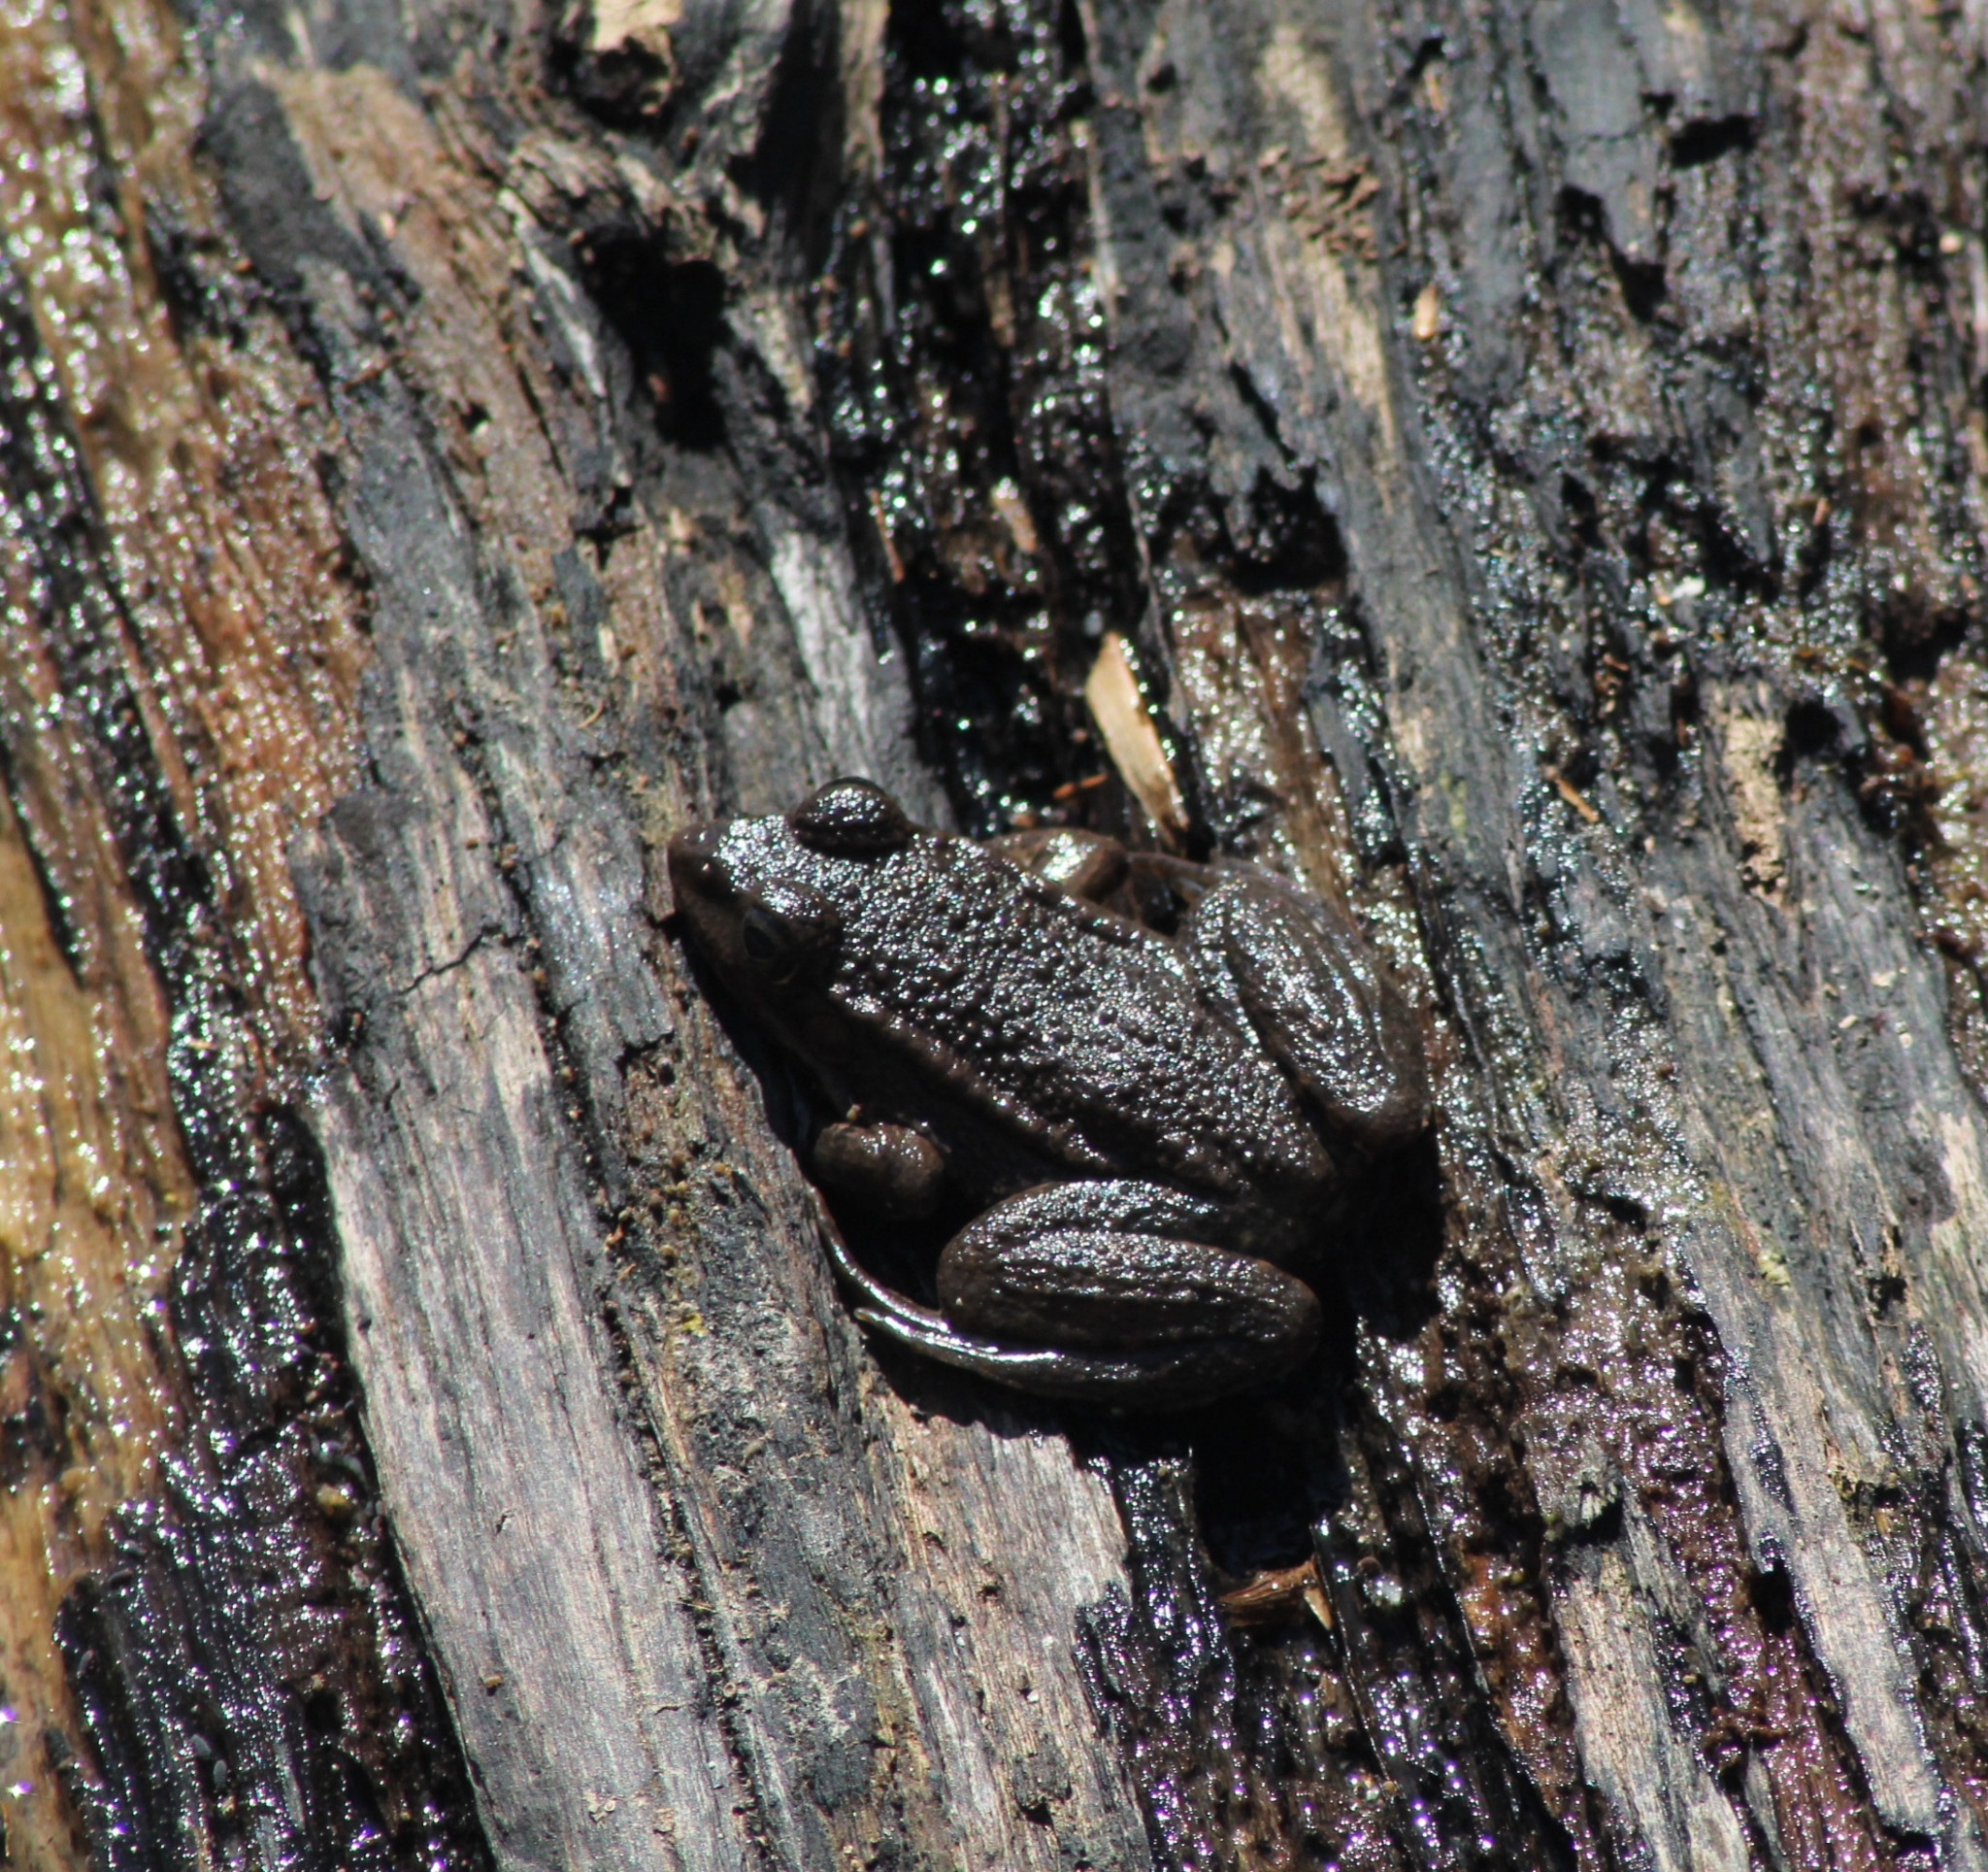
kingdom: Animalia
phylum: Chordata
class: Amphibia
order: Anura
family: Ranidae
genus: Pelophylax
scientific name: Pelophylax
